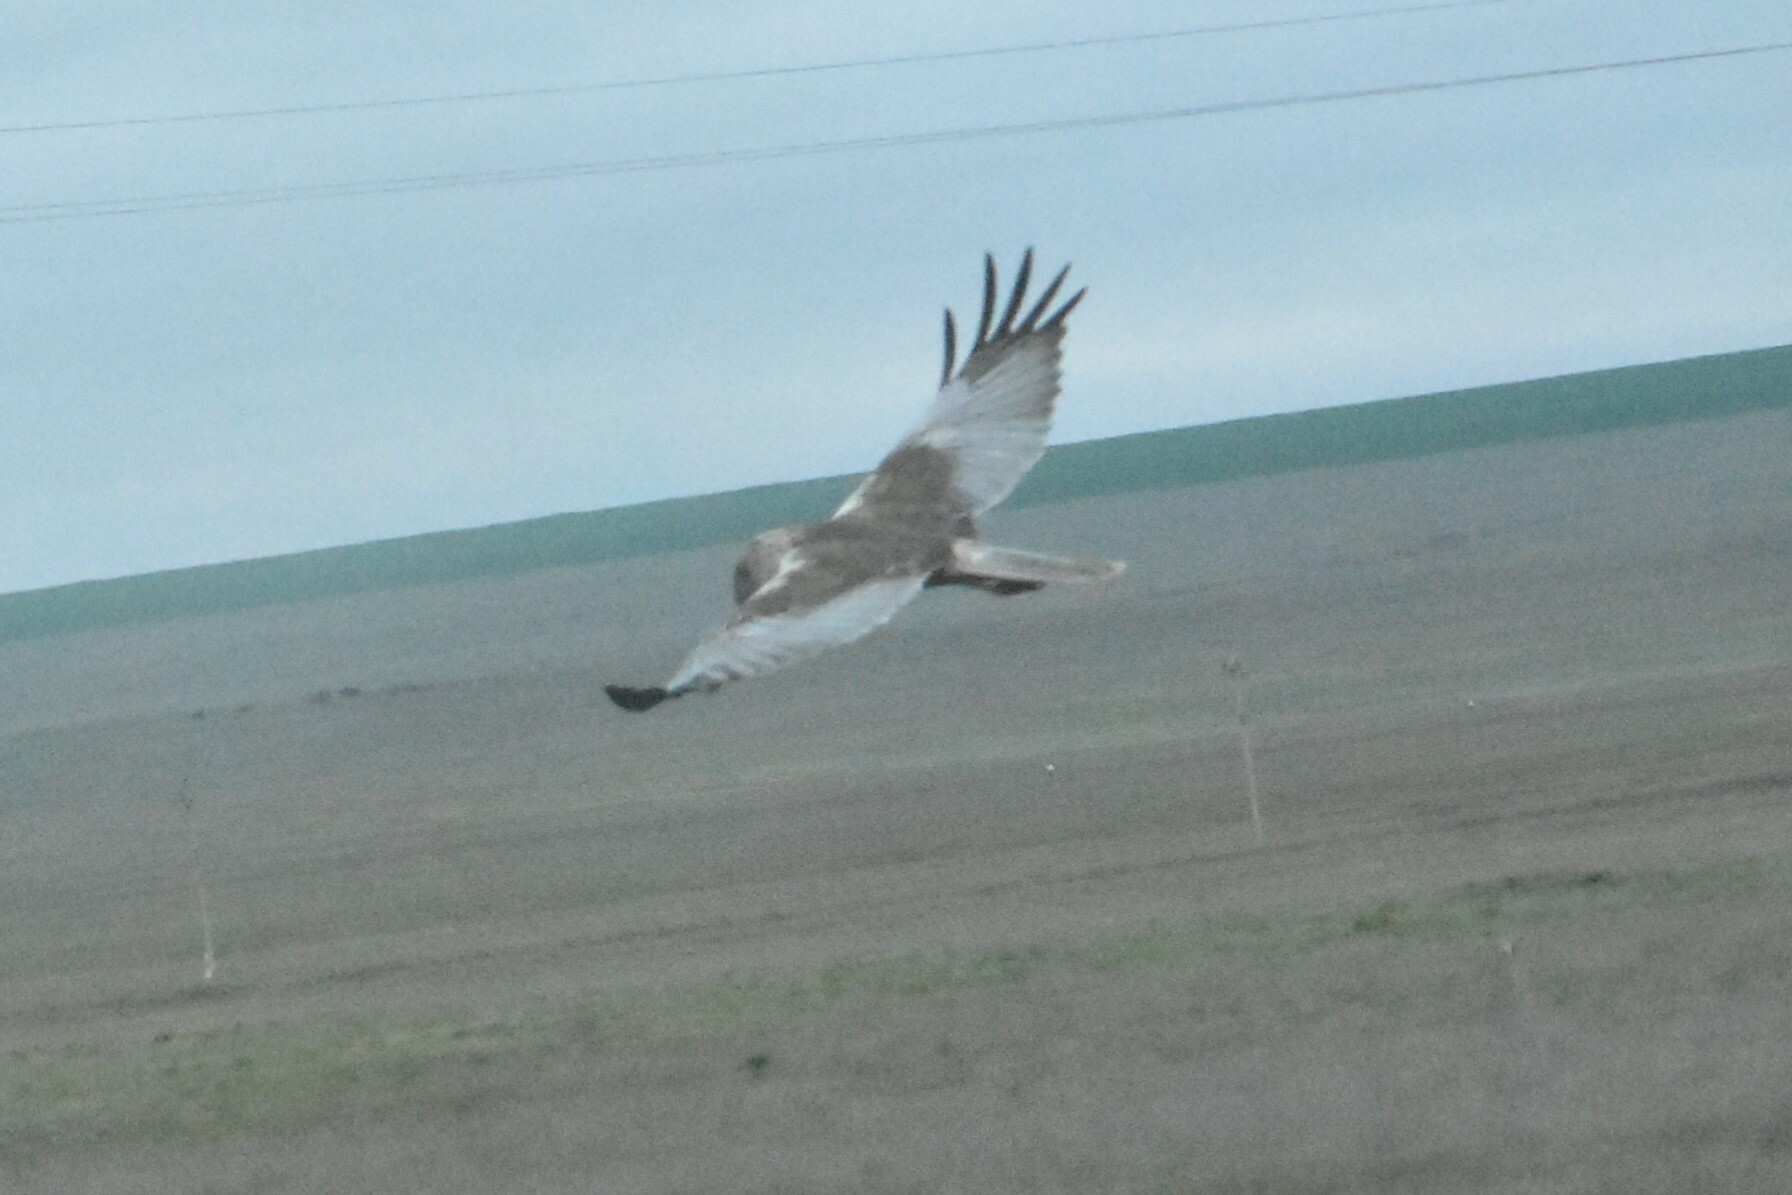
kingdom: Animalia
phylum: Chordata
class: Aves
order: Accipitriformes
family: Accipitridae
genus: Circus
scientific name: Circus aeruginosus
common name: Western marsh harrier
